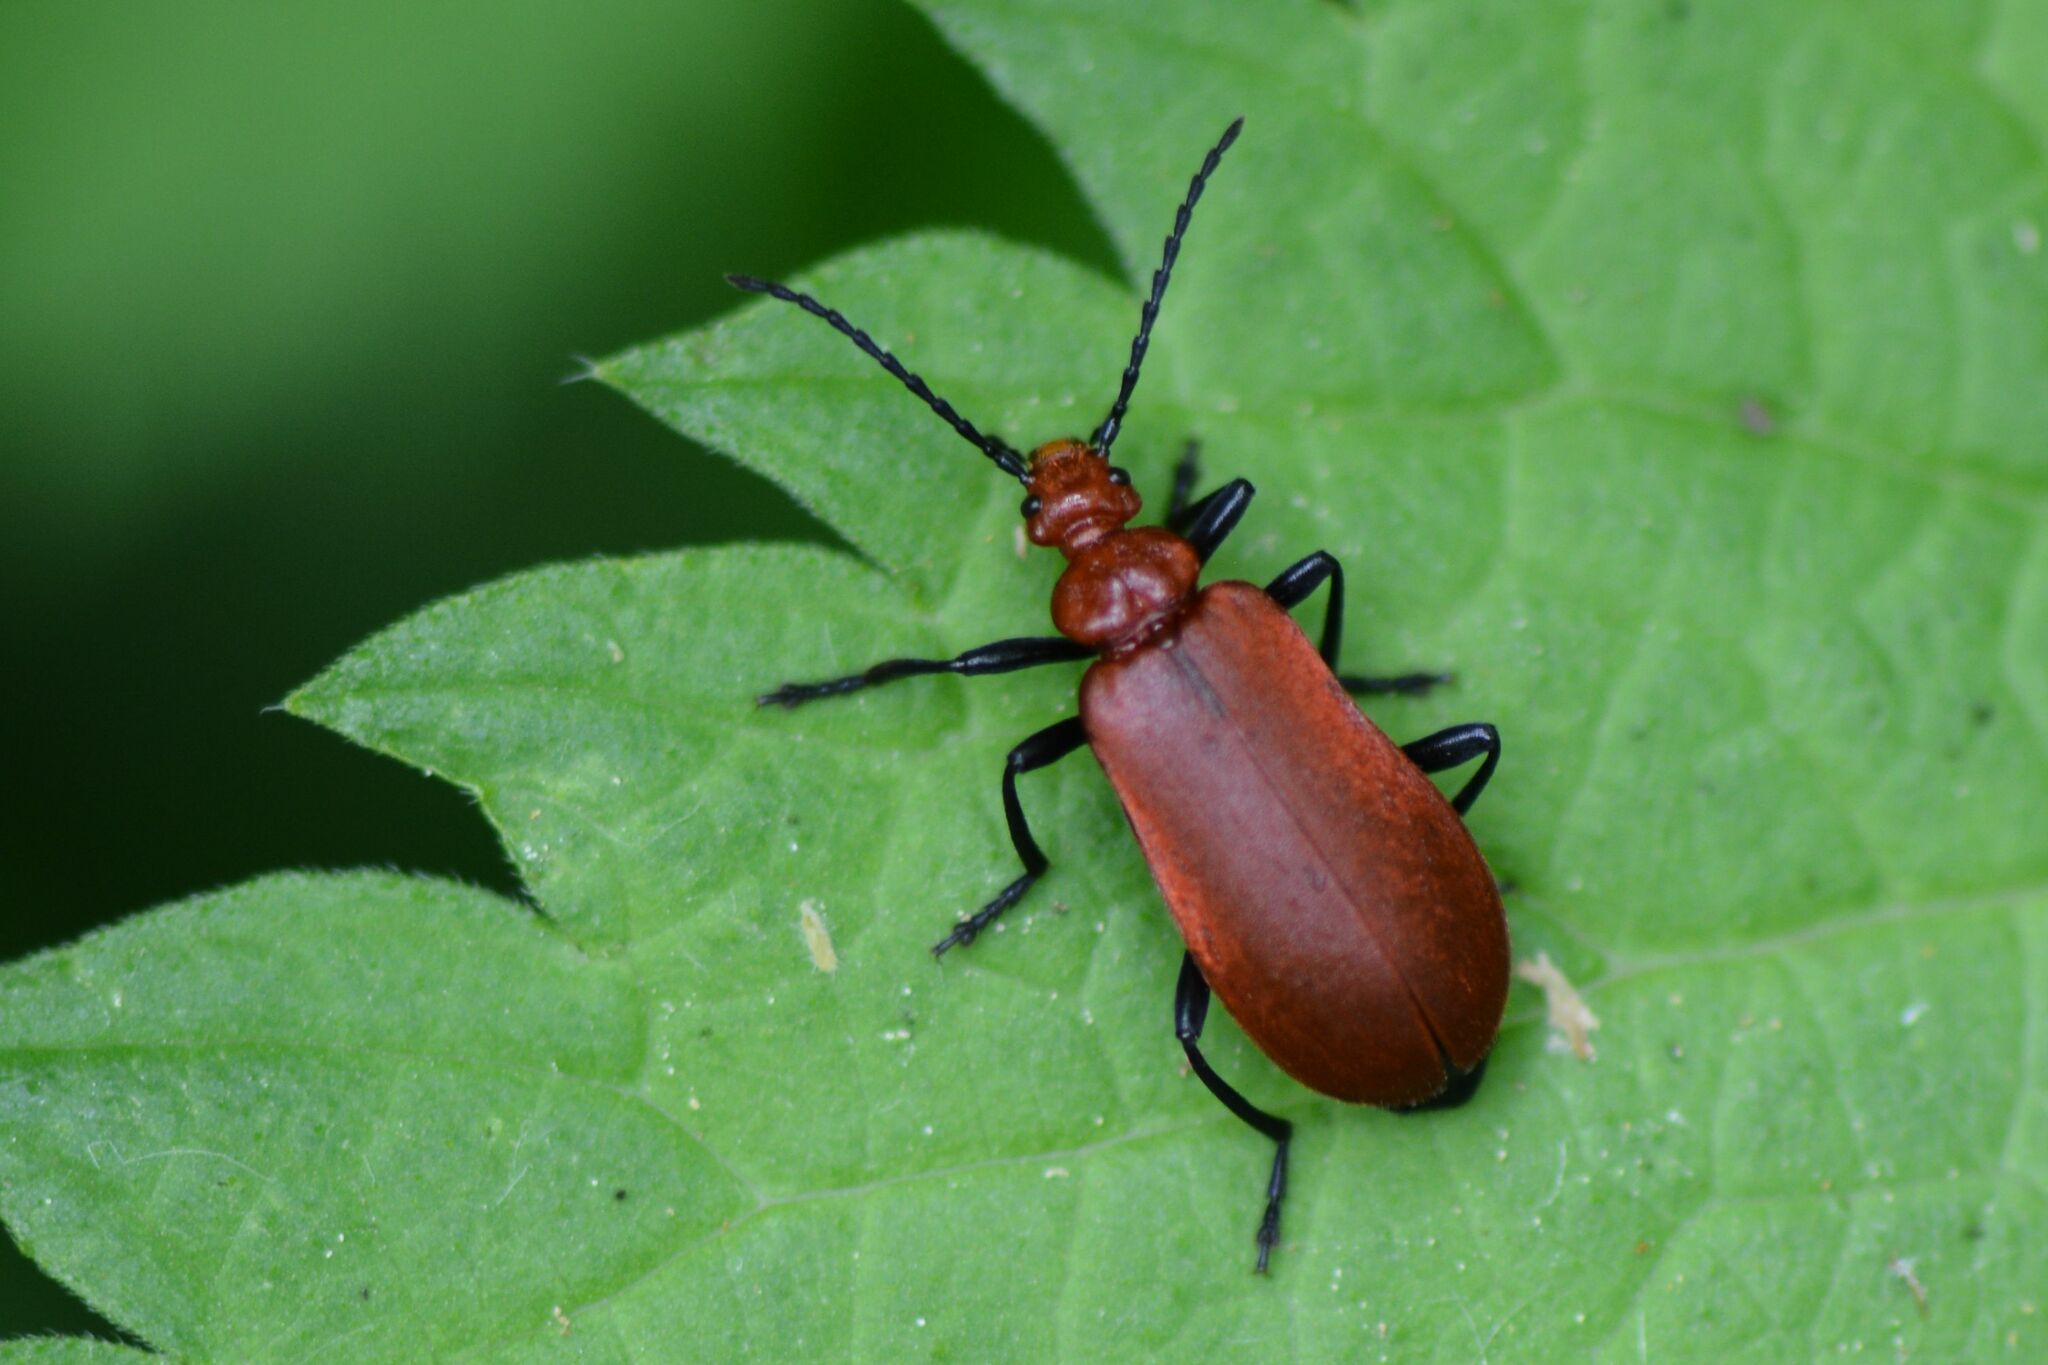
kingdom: Animalia
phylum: Arthropoda
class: Insecta
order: Coleoptera
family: Pyrochroidae
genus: Pyrochroa
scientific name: Pyrochroa serraticornis
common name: Red-headed cardinal beetle
